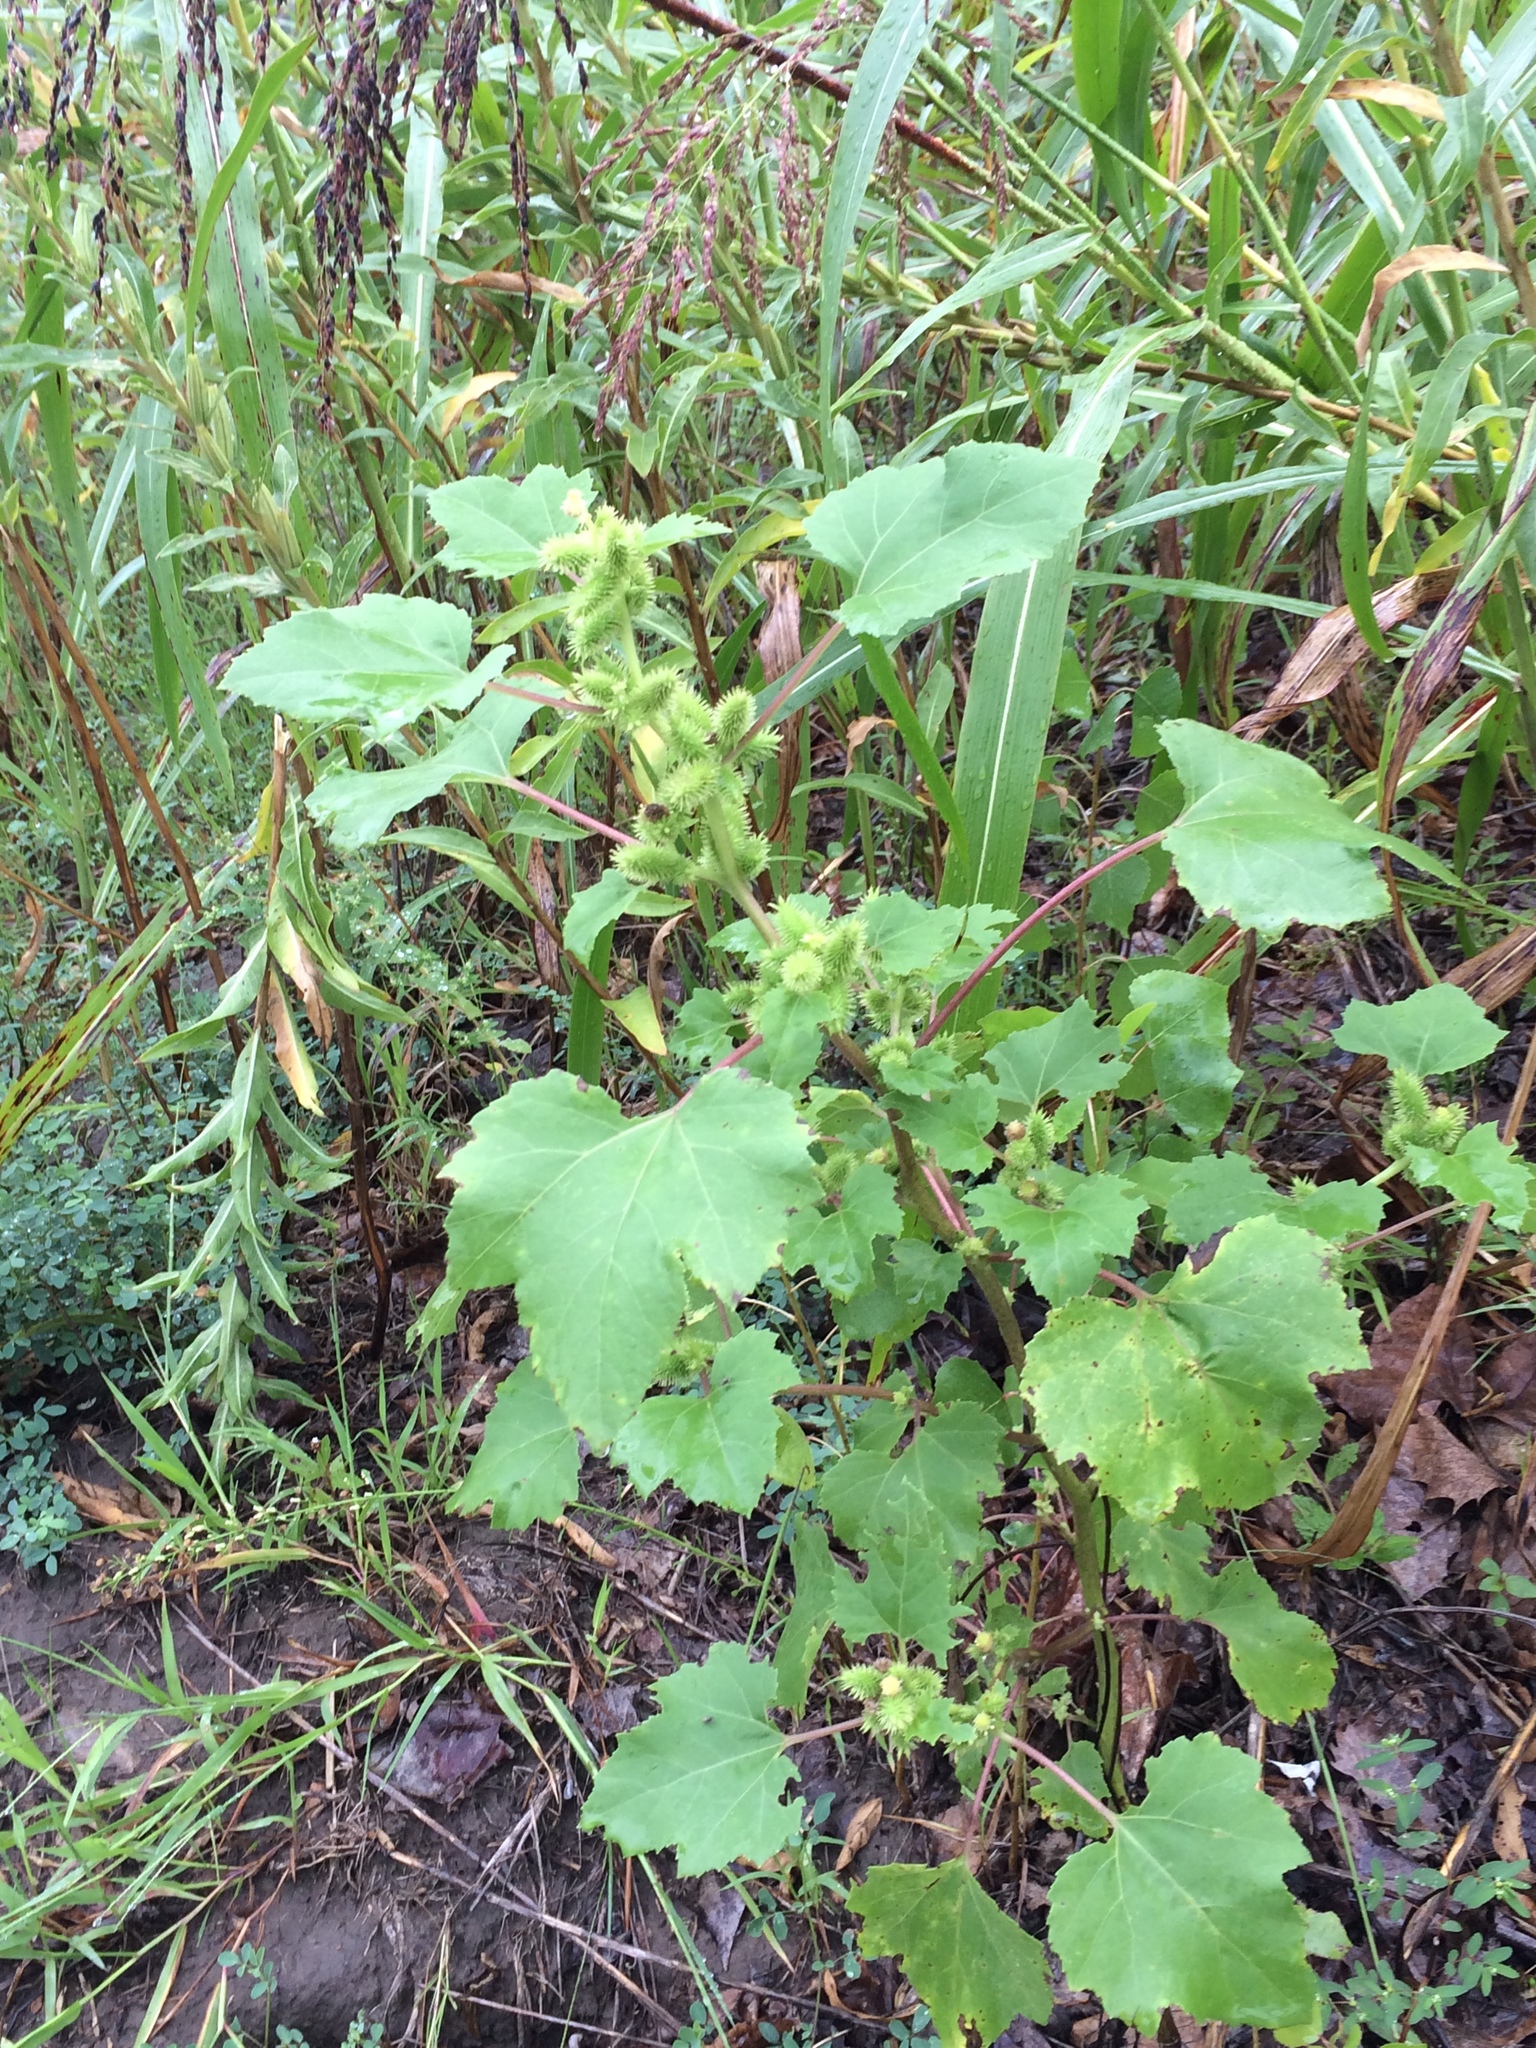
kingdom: Plantae
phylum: Tracheophyta
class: Magnoliopsida
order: Asterales
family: Asteraceae
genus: Xanthium
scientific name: Xanthium strumarium
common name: Rough cocklebur
